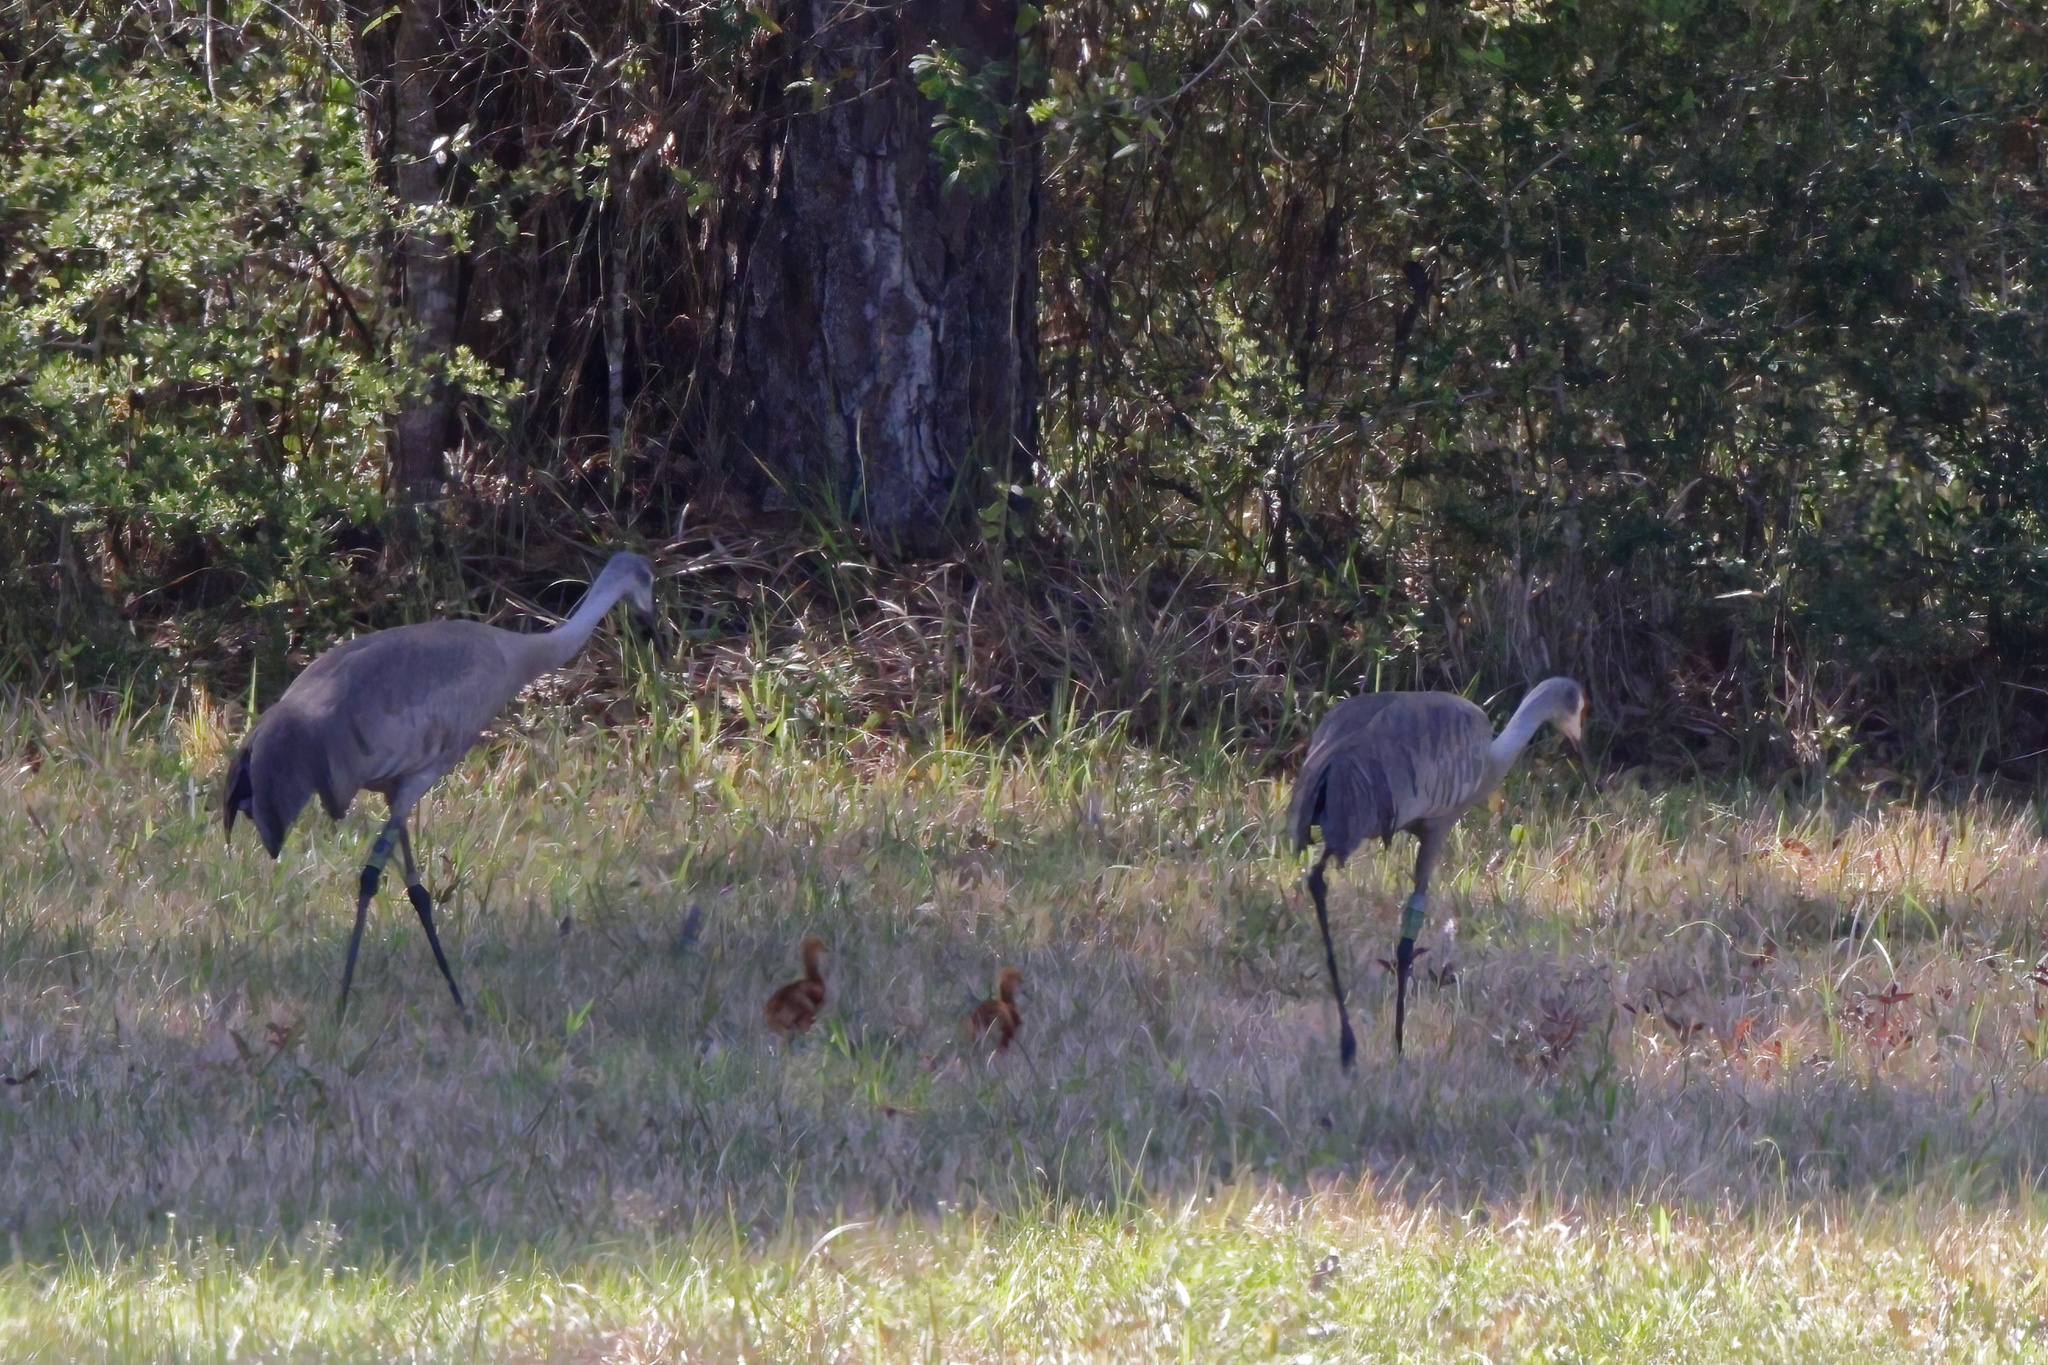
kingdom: Animalia
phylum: Chordata
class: Aves
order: Gruiformes
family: Gruidae
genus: Grus
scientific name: Grus canadensis
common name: Sandhill crane
